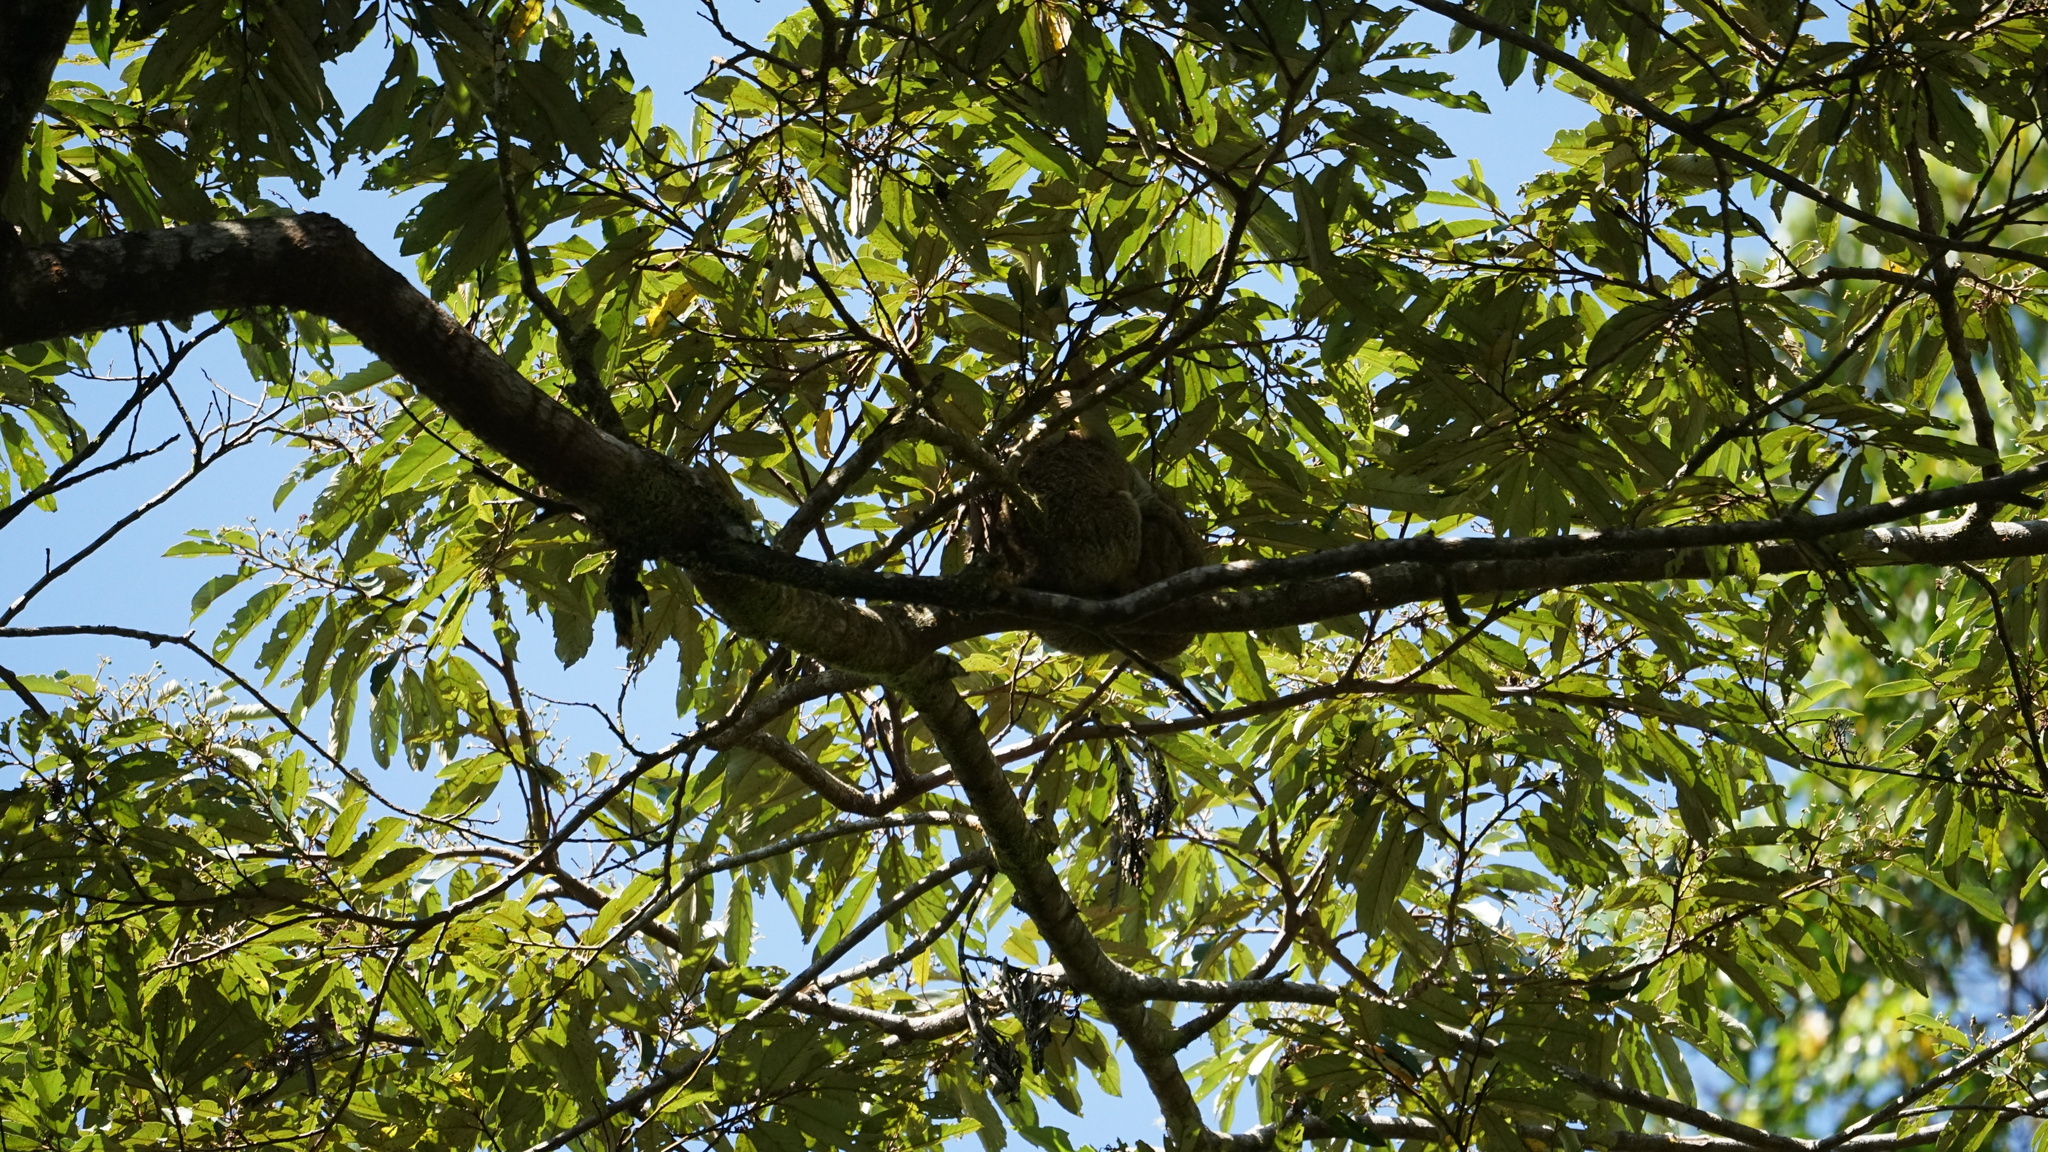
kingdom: Animalia
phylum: Chordata
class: Mammalia
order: Diprotodontia
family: Pseudocheiridae
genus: Pseudochirops
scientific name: Pseudochirops archeri
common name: Green ringtail
